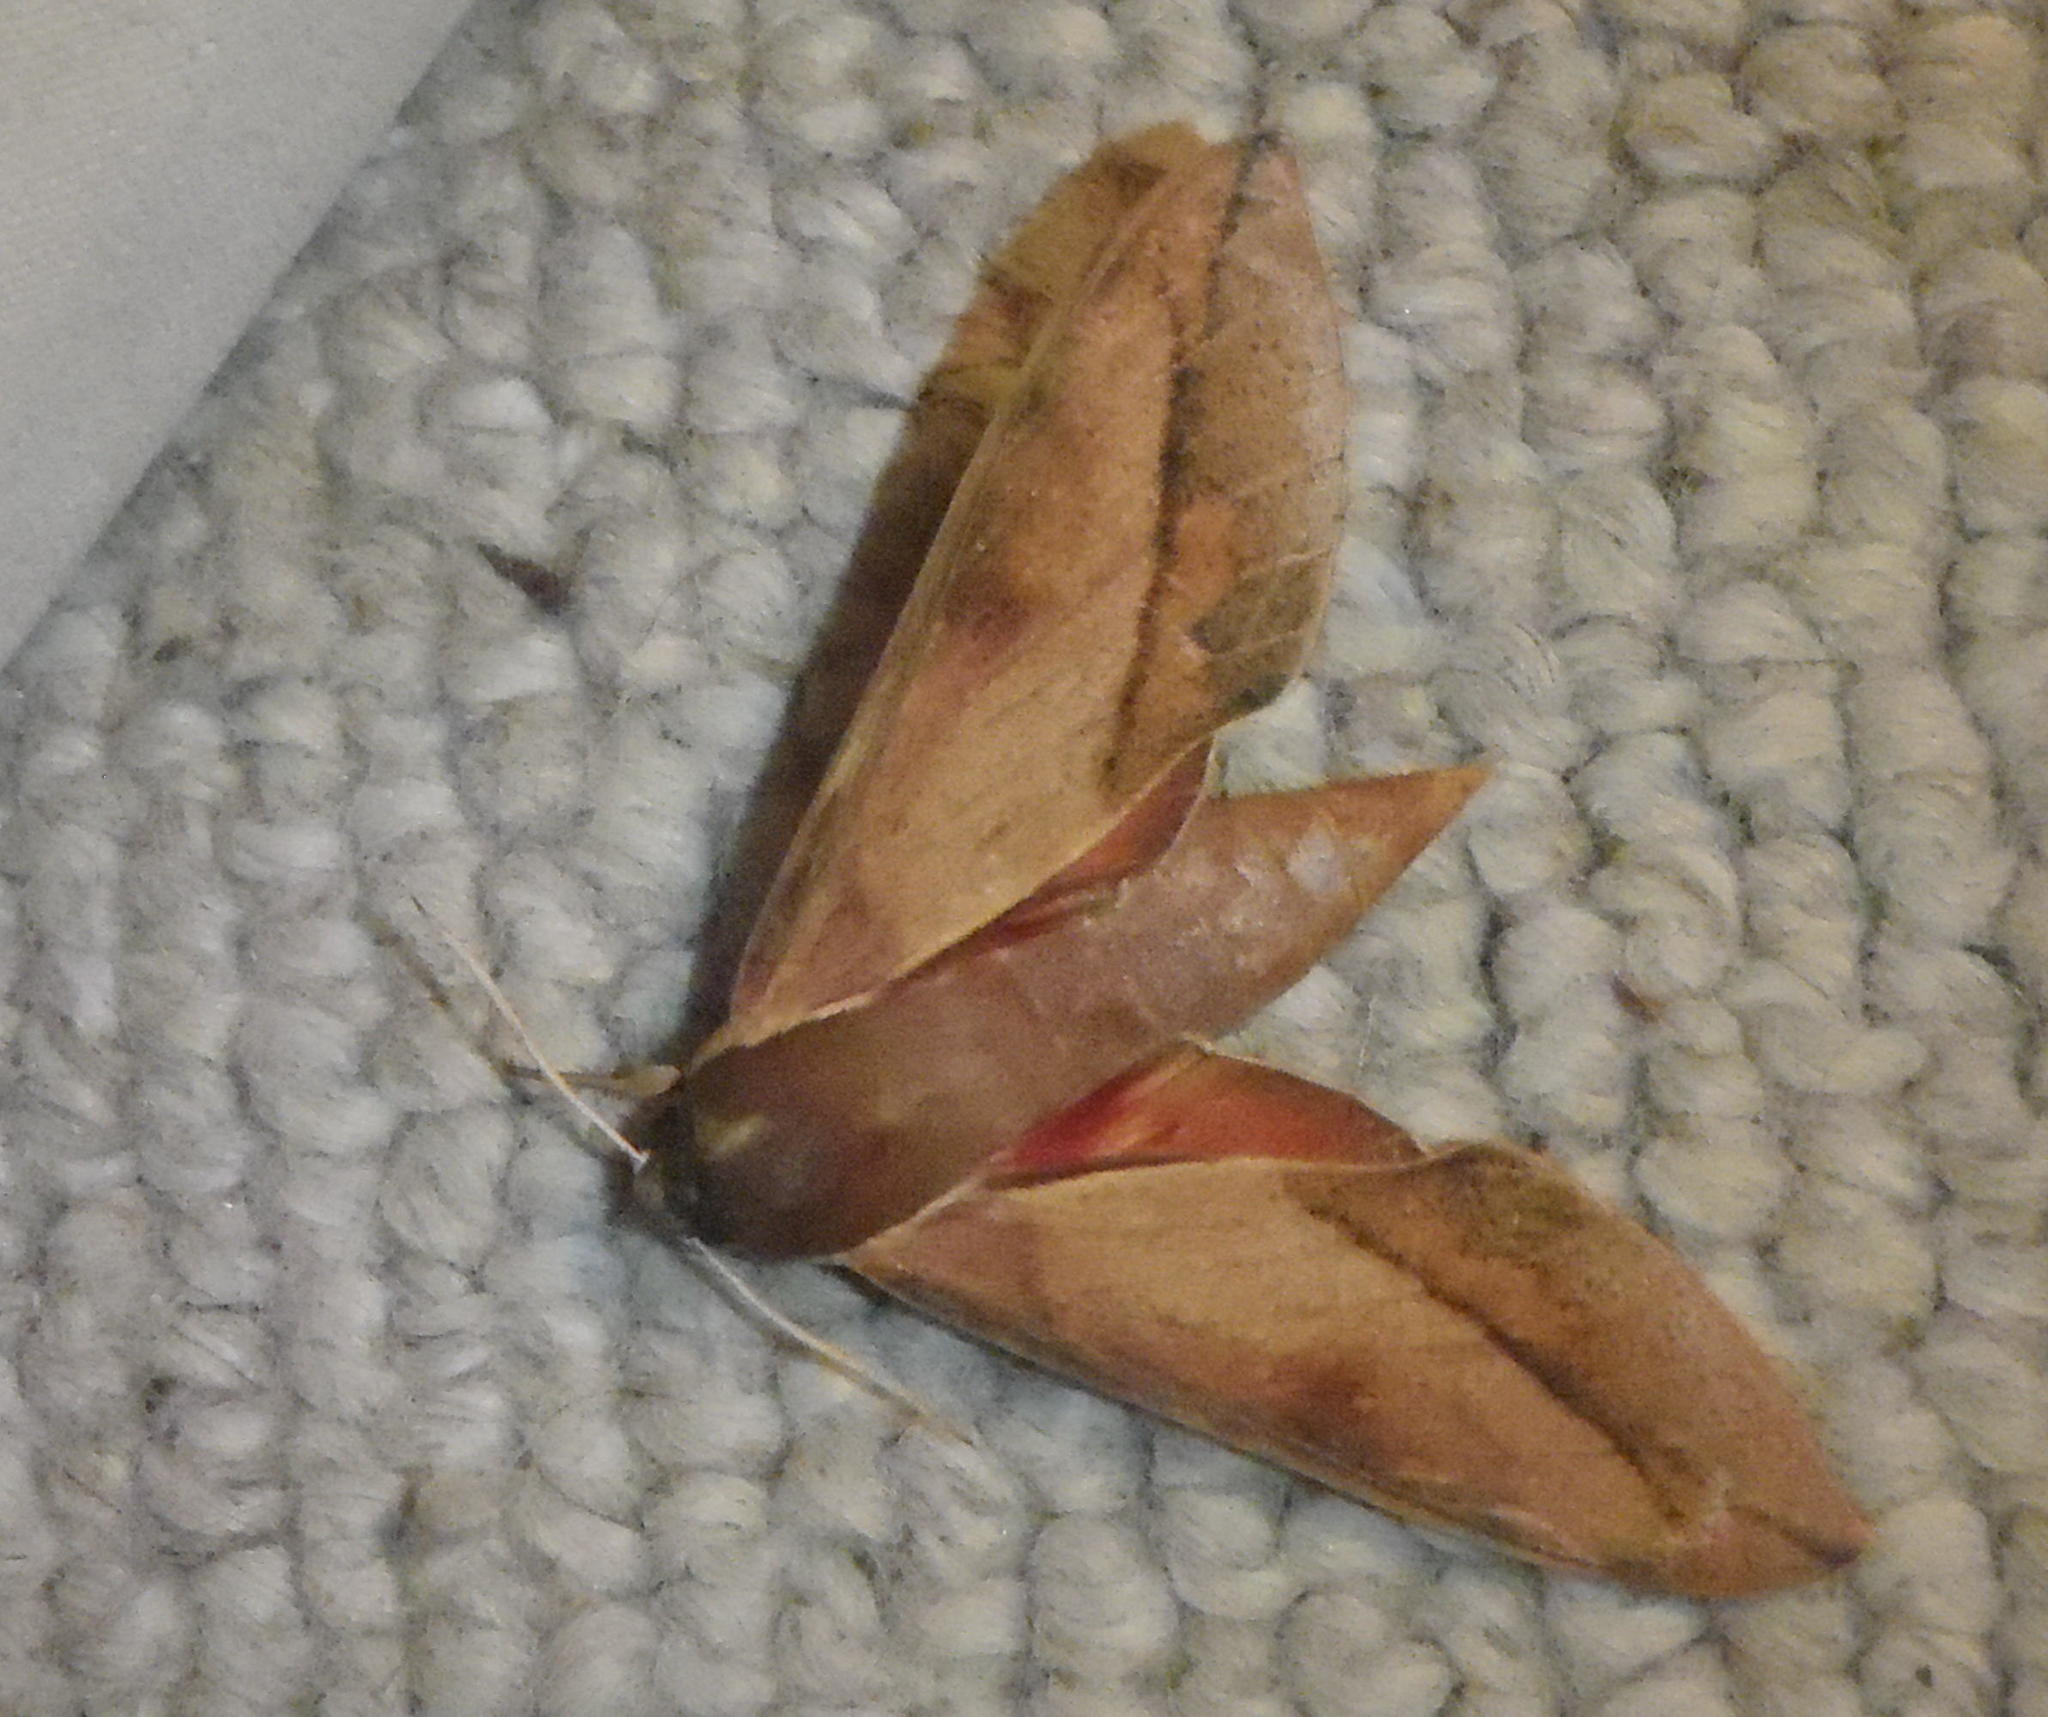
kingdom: Animalia
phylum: Arthropoda
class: Insecta
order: Lepidoptera
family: Sphingidae
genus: Theretra
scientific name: Theretra capensis
